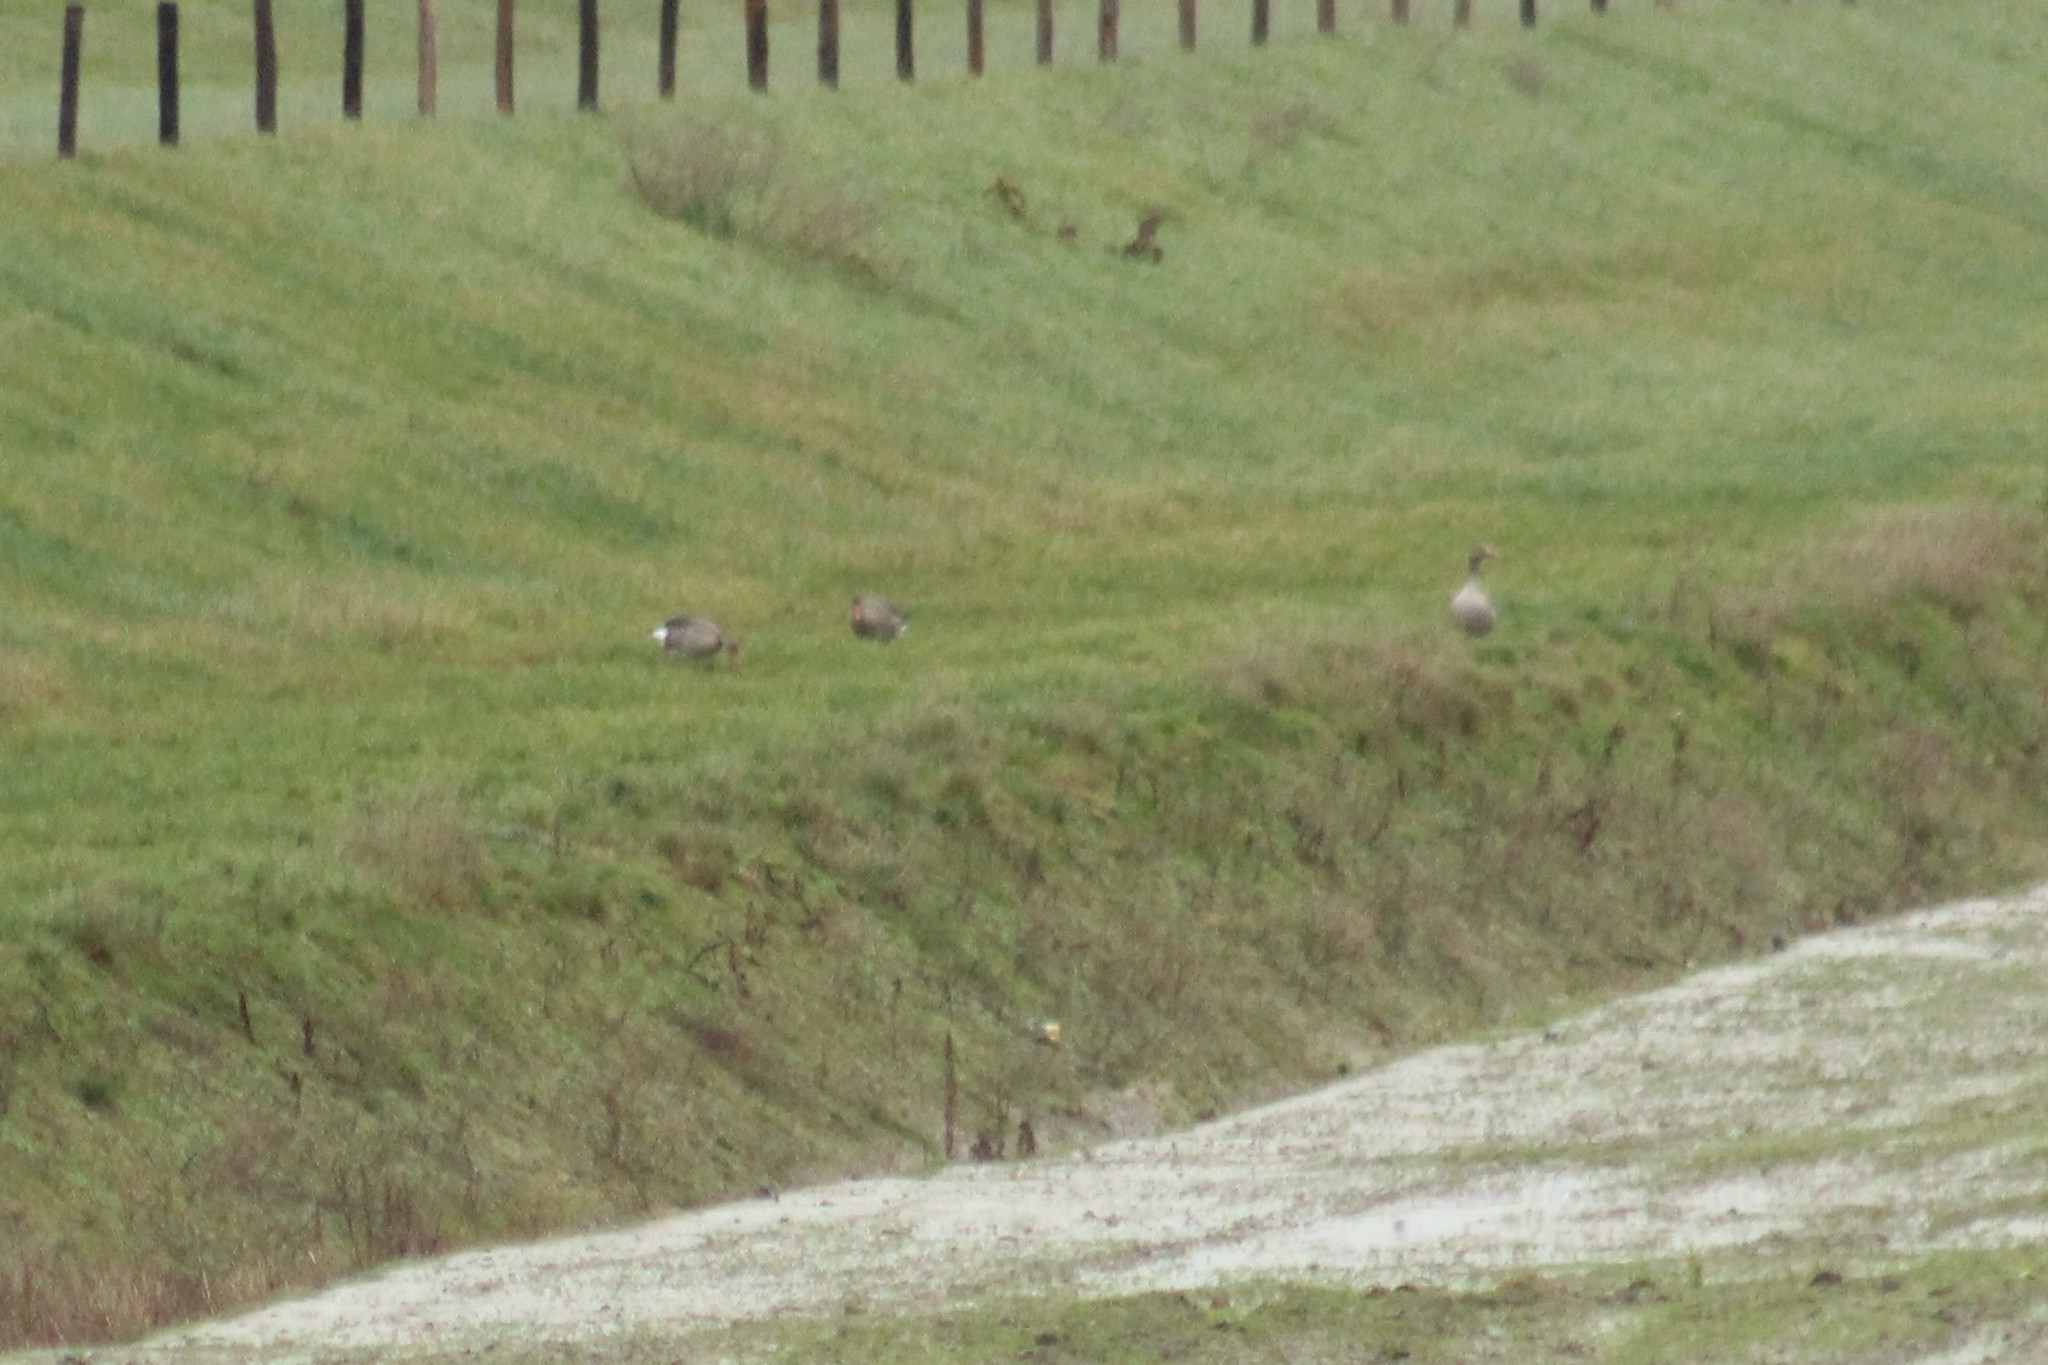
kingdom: Animalia
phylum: Chordata
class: Aves
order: Anseriformes
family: Anatidae
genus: Anser
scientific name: Anser anser
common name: Greylag goose
